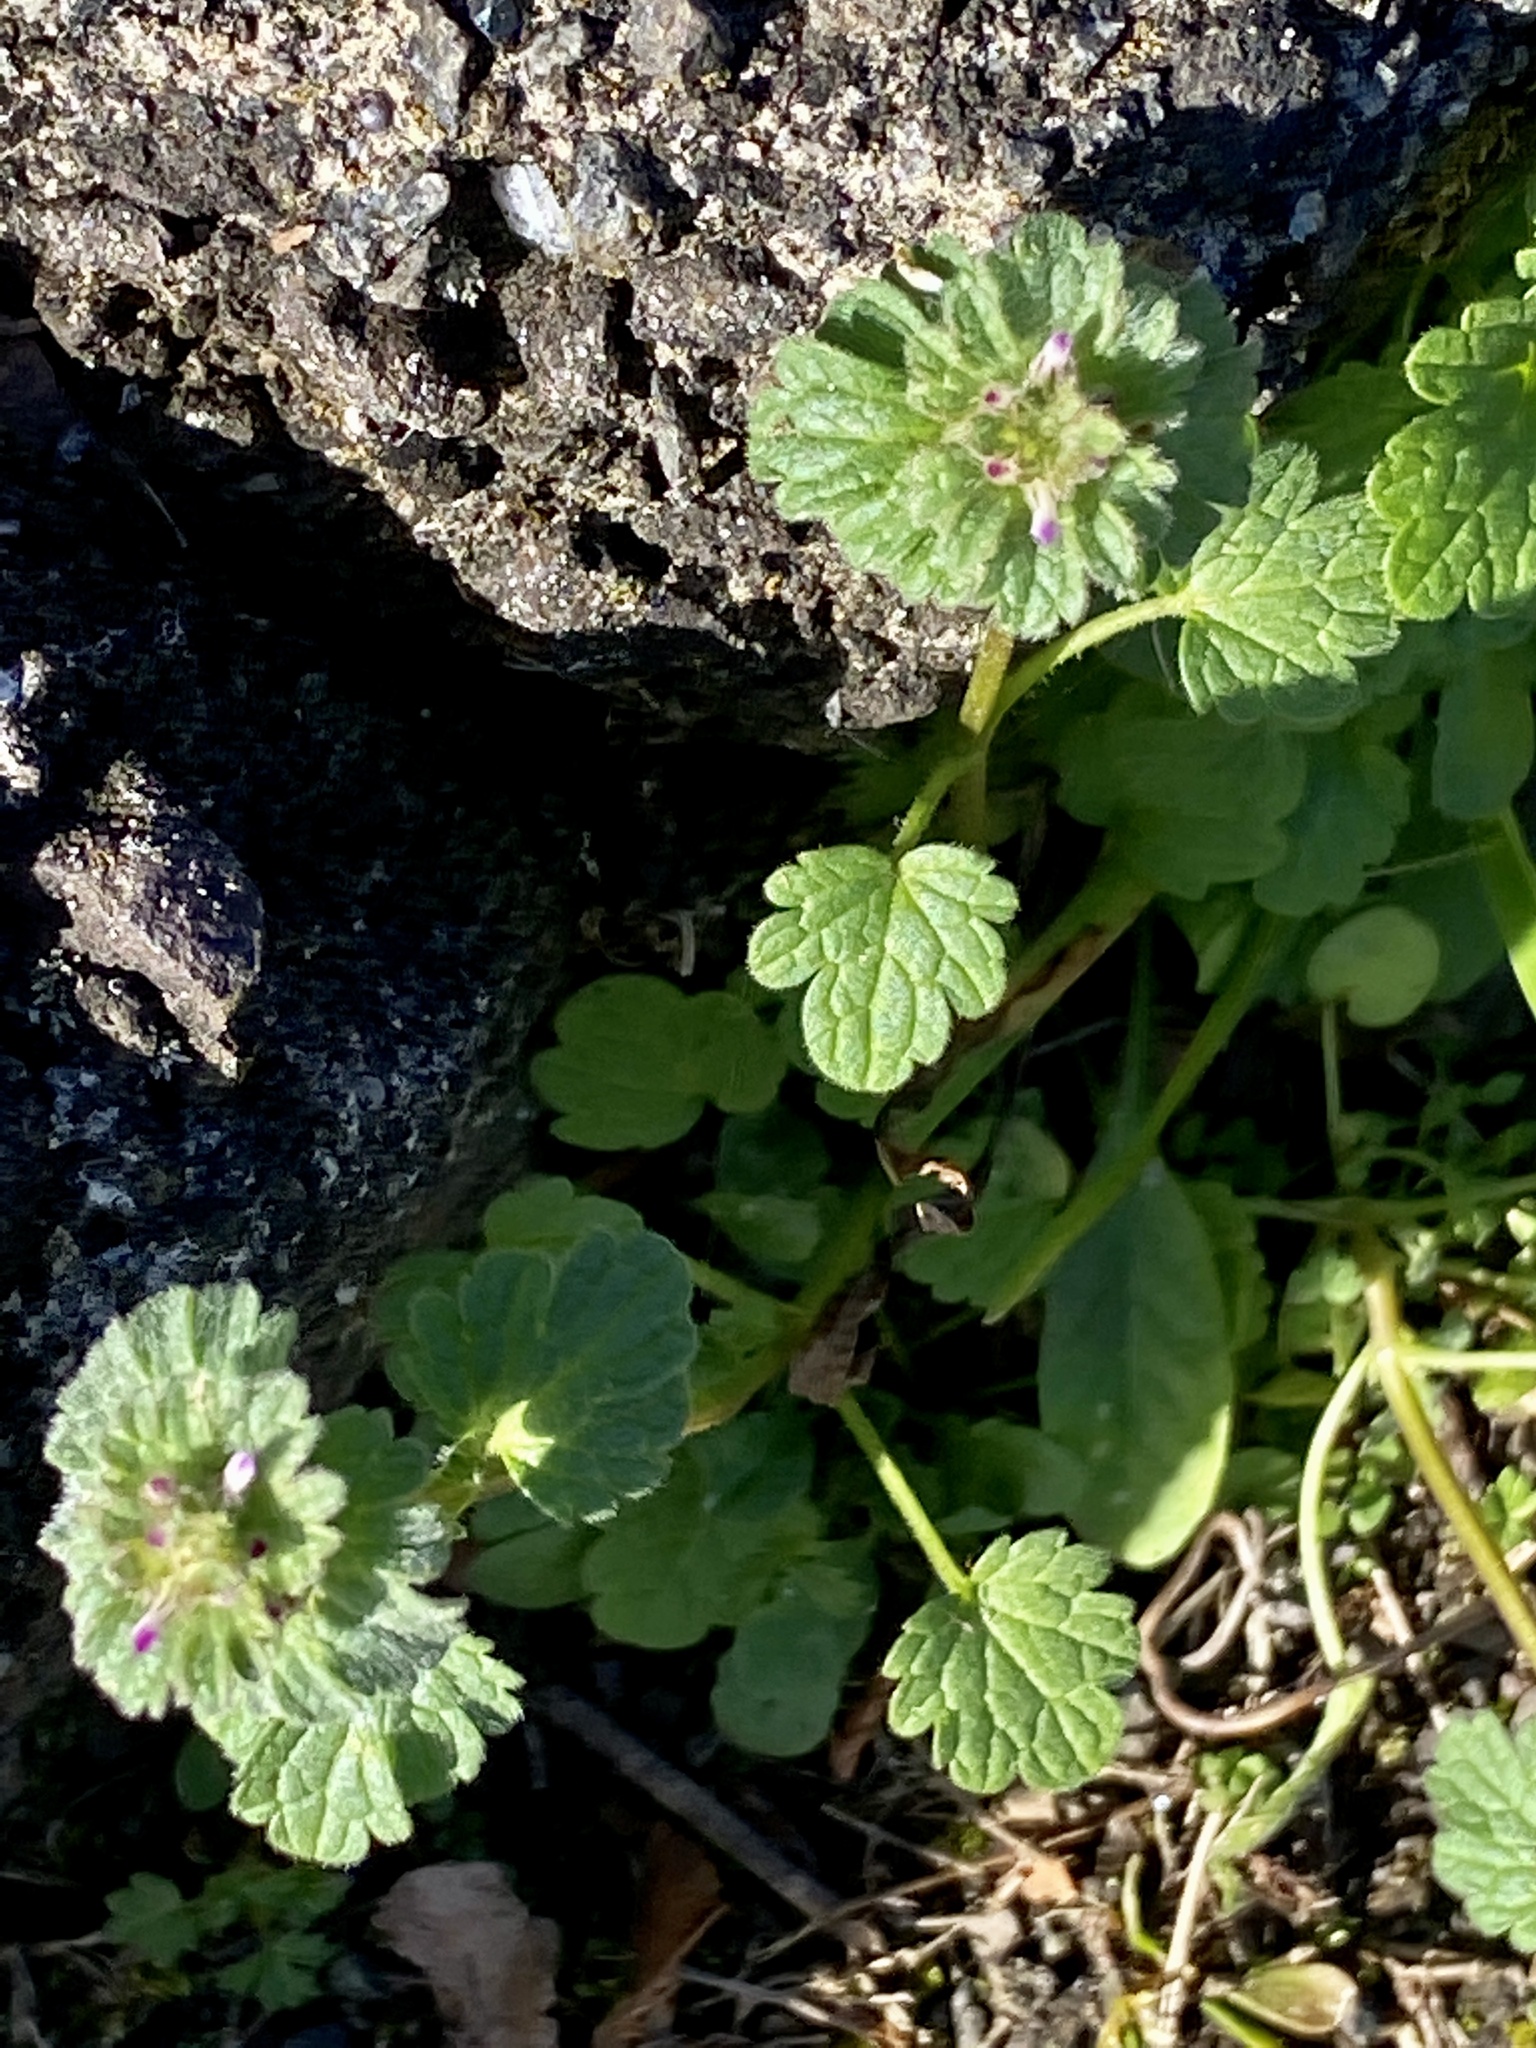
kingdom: Plantae
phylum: Tracheophyta
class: Magnoliopsida
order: Lamiales
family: Lamiaceae
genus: Lamium
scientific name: Lamium amplexicaule
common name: Henbit dead-nettle
